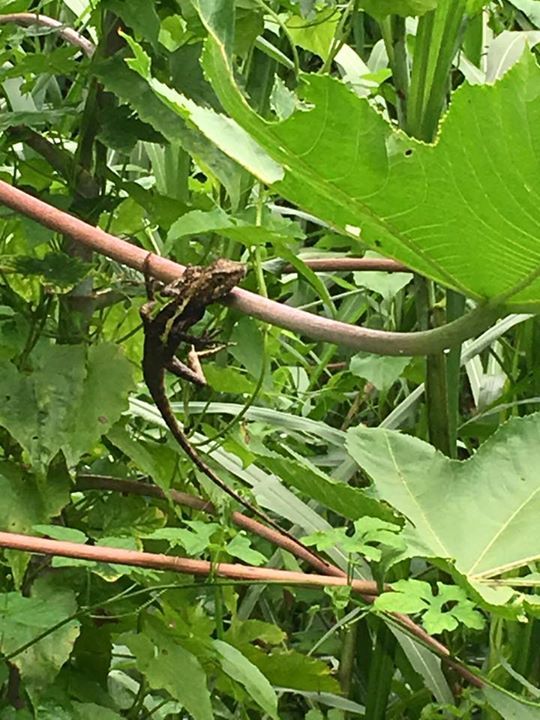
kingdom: Animalia
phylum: Chordata
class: Squamata
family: Agamidae
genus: Diploderma
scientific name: Diploderma swinhonis
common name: Taiwan japalure
